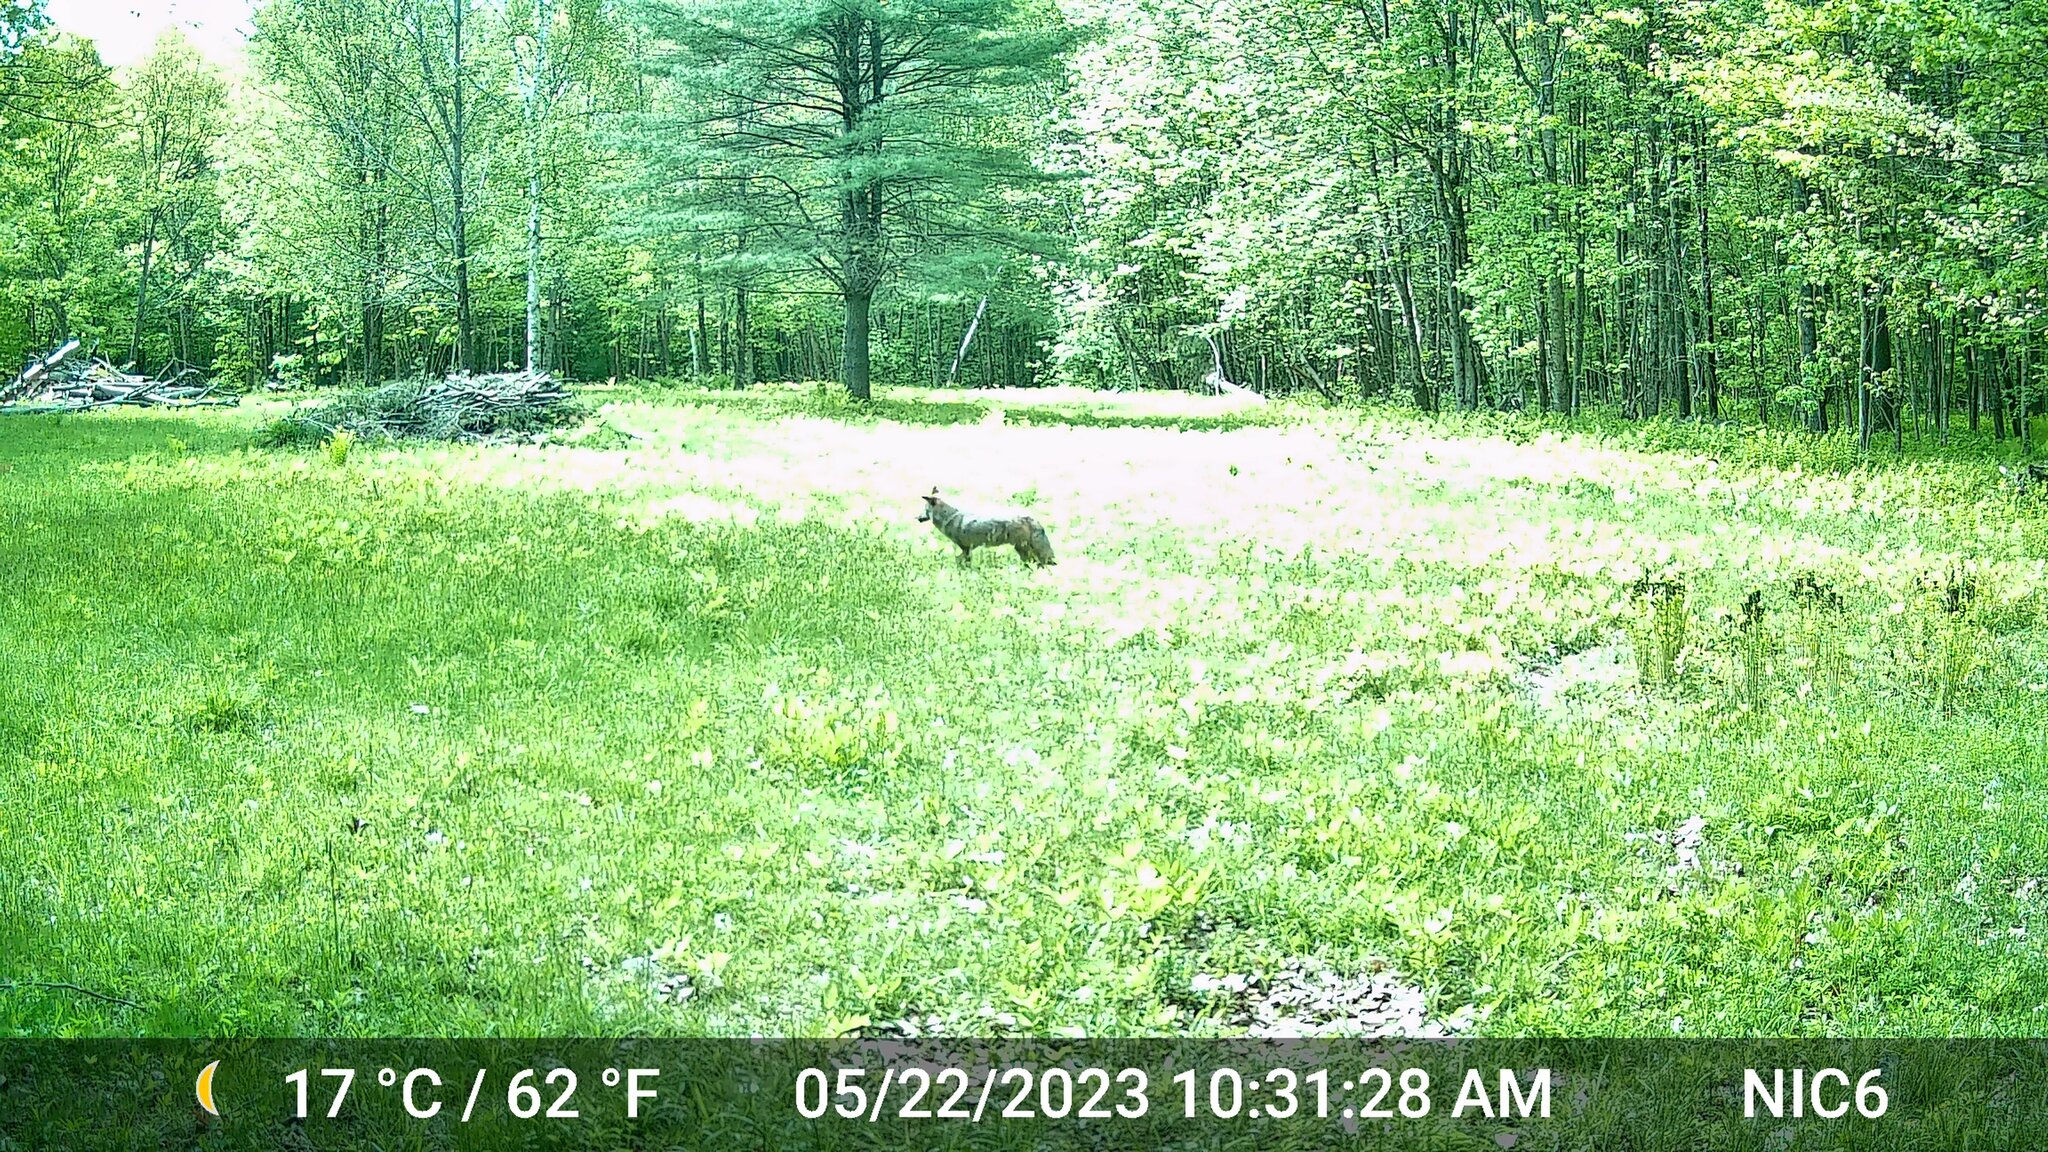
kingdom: Animalia
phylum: Chordata
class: Aves
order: Galliformes
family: Phasianidae
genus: Meleagris
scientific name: Meleagris gallopavo
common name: Wild turkey
